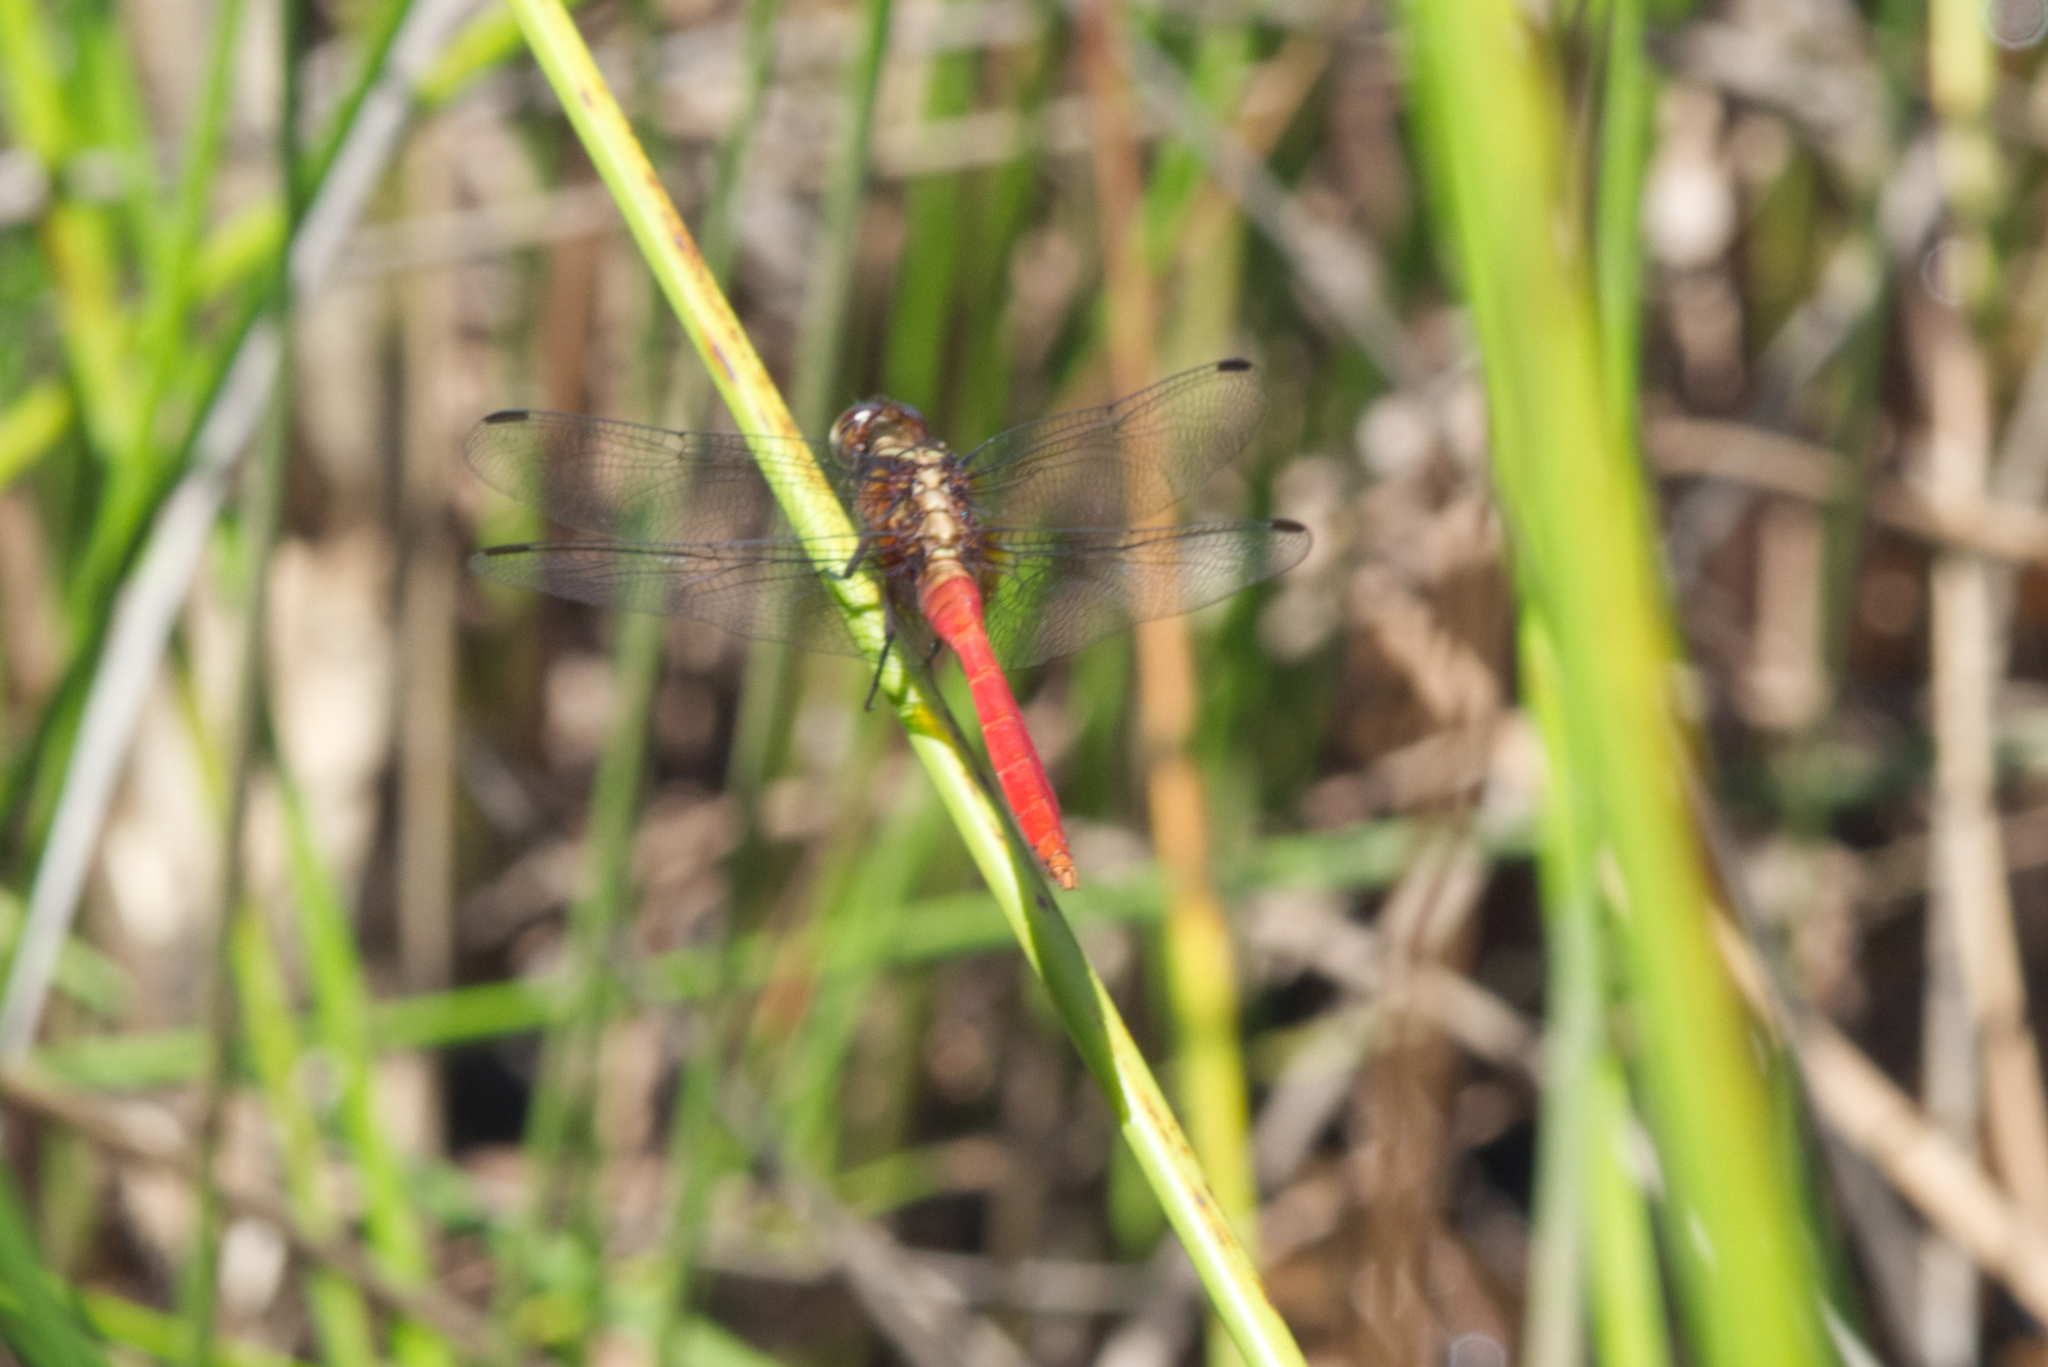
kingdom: Animalia
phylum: Arthropoda
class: Insecta
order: Odonata
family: Libellulidae
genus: Orthetrum
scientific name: Orthetrum villosovittatum
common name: Firery skimmer
